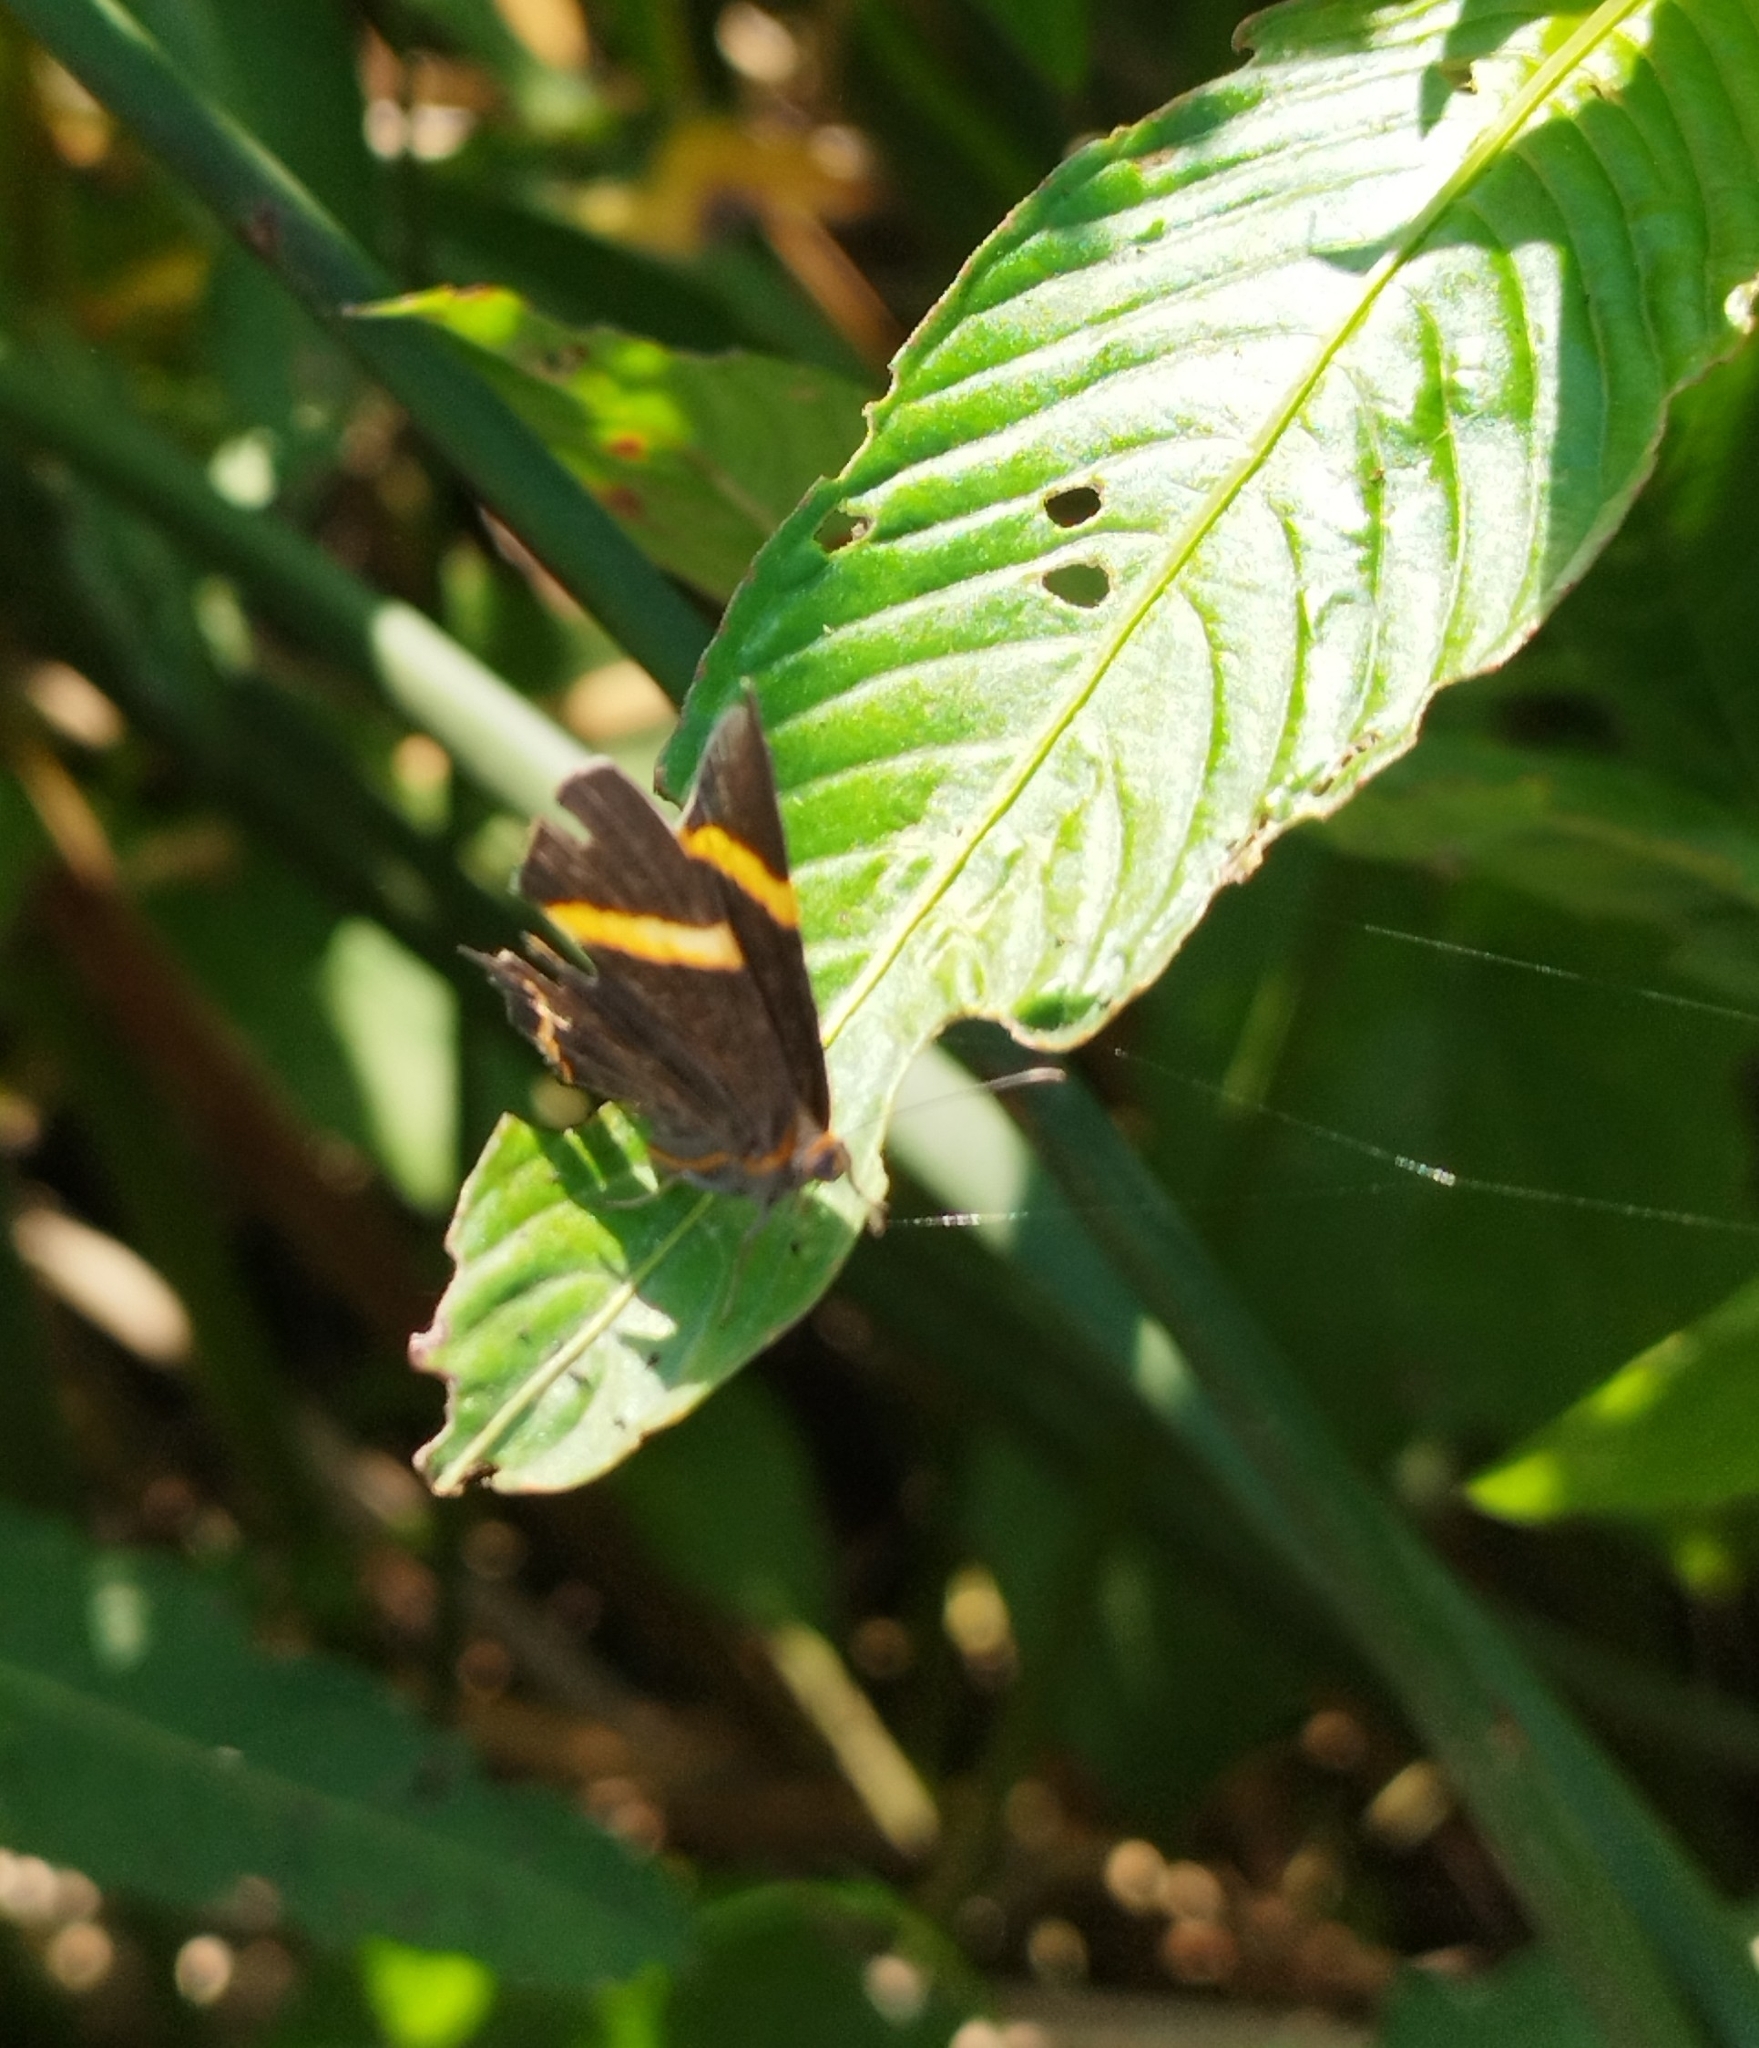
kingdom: Animalia
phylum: Arthropoda
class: Insecta
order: Lepidoptera
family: Riodinidae
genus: Riodina
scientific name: Riodina lysippoides
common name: Little dancer metalmark
